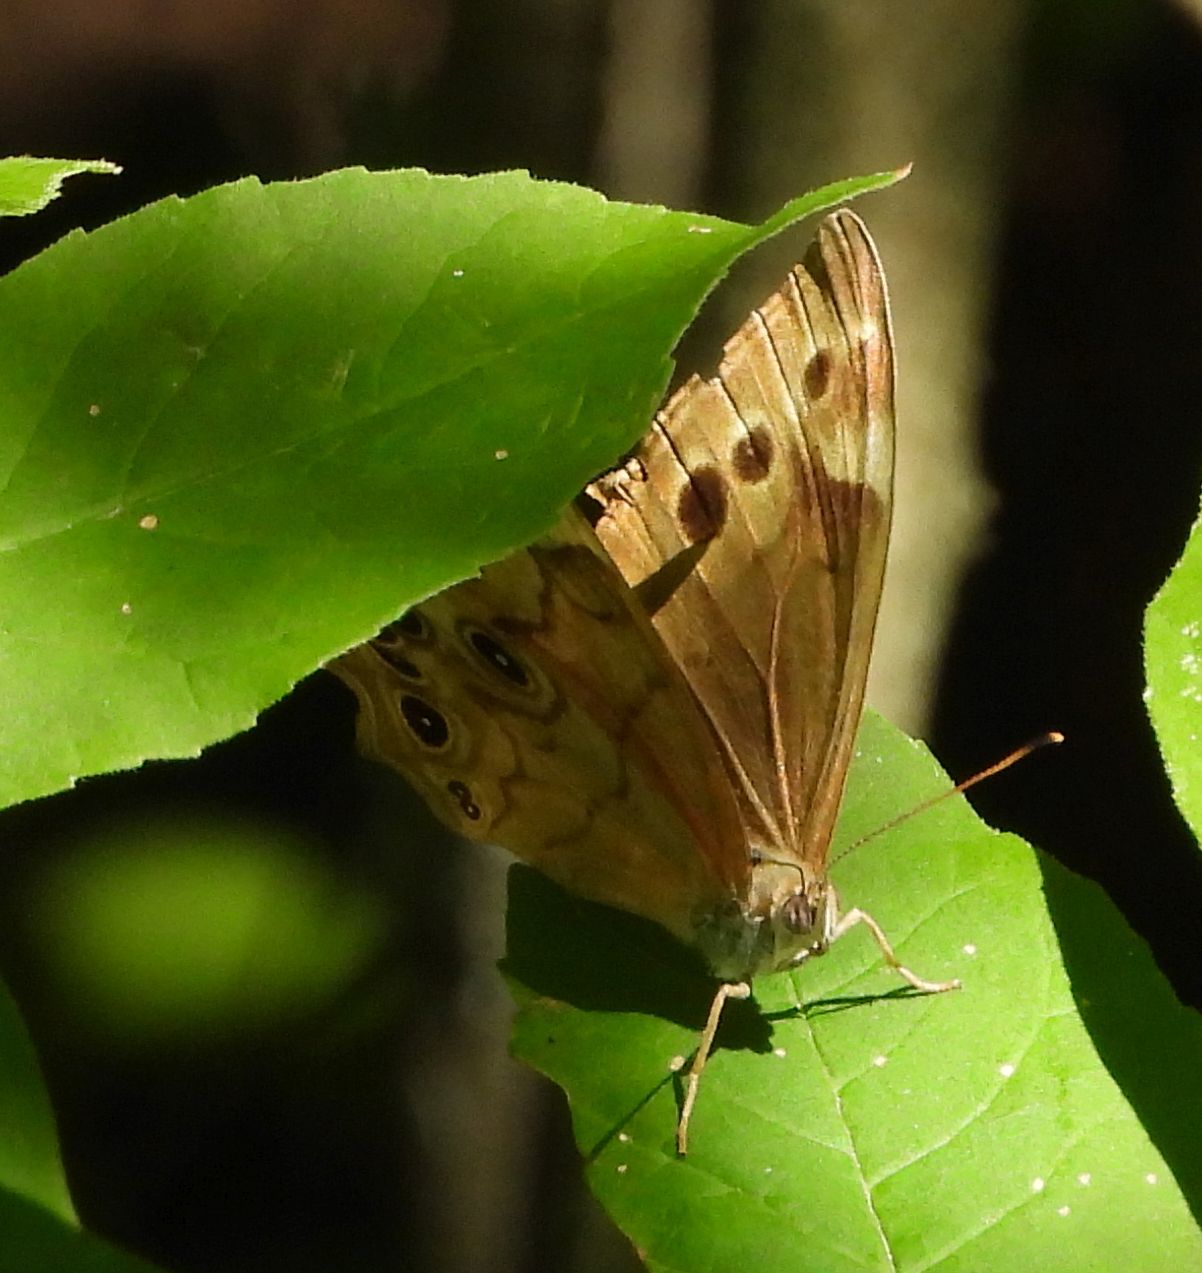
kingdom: Animalia
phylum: Arthropoda
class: Insecta
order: Lepidoptera
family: Nymphalidae
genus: Lethe
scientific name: Lethe anthedon
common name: Northern pearly-eye
